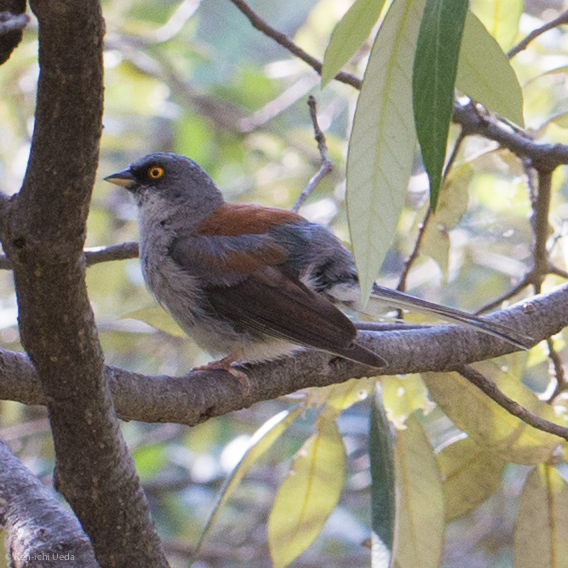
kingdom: Animalia
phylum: Chordata
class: Aves
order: Passeriformes
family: Passerellidae
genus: Junco
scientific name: Junco phaeonotus
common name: Yellow-eyed junco
